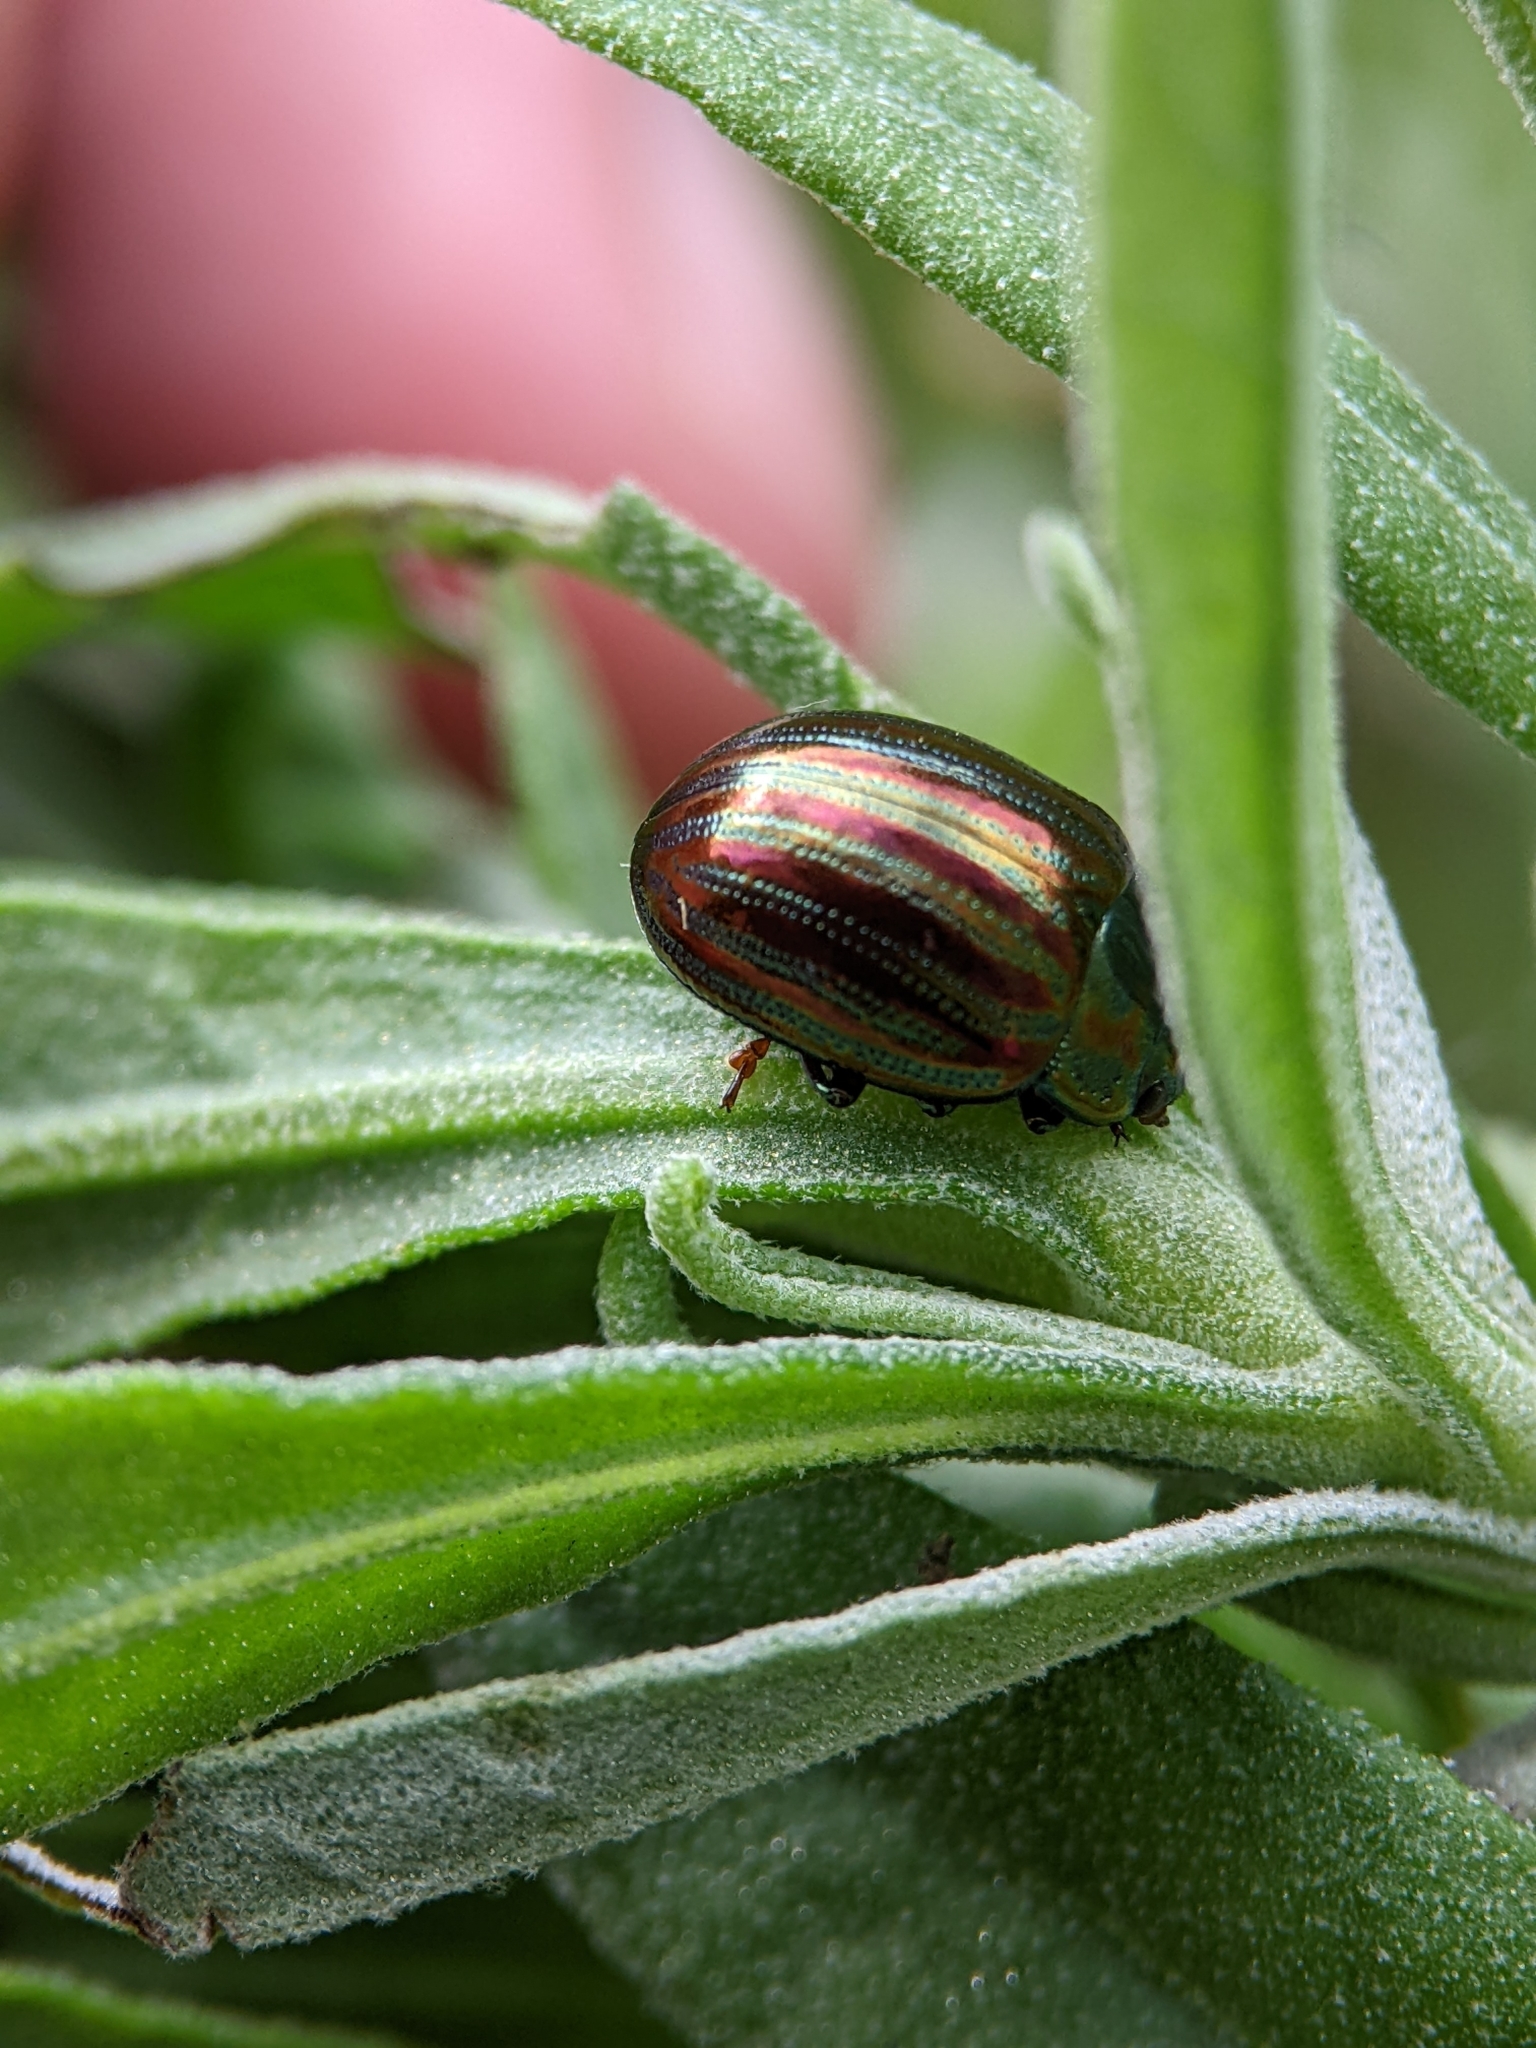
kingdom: Animalia
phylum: Arthropoda
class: Insecta
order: Coleoptera
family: Chrysomelidae
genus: Chrysolina
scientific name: Chrysolina americana
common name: Rosemary beetle
